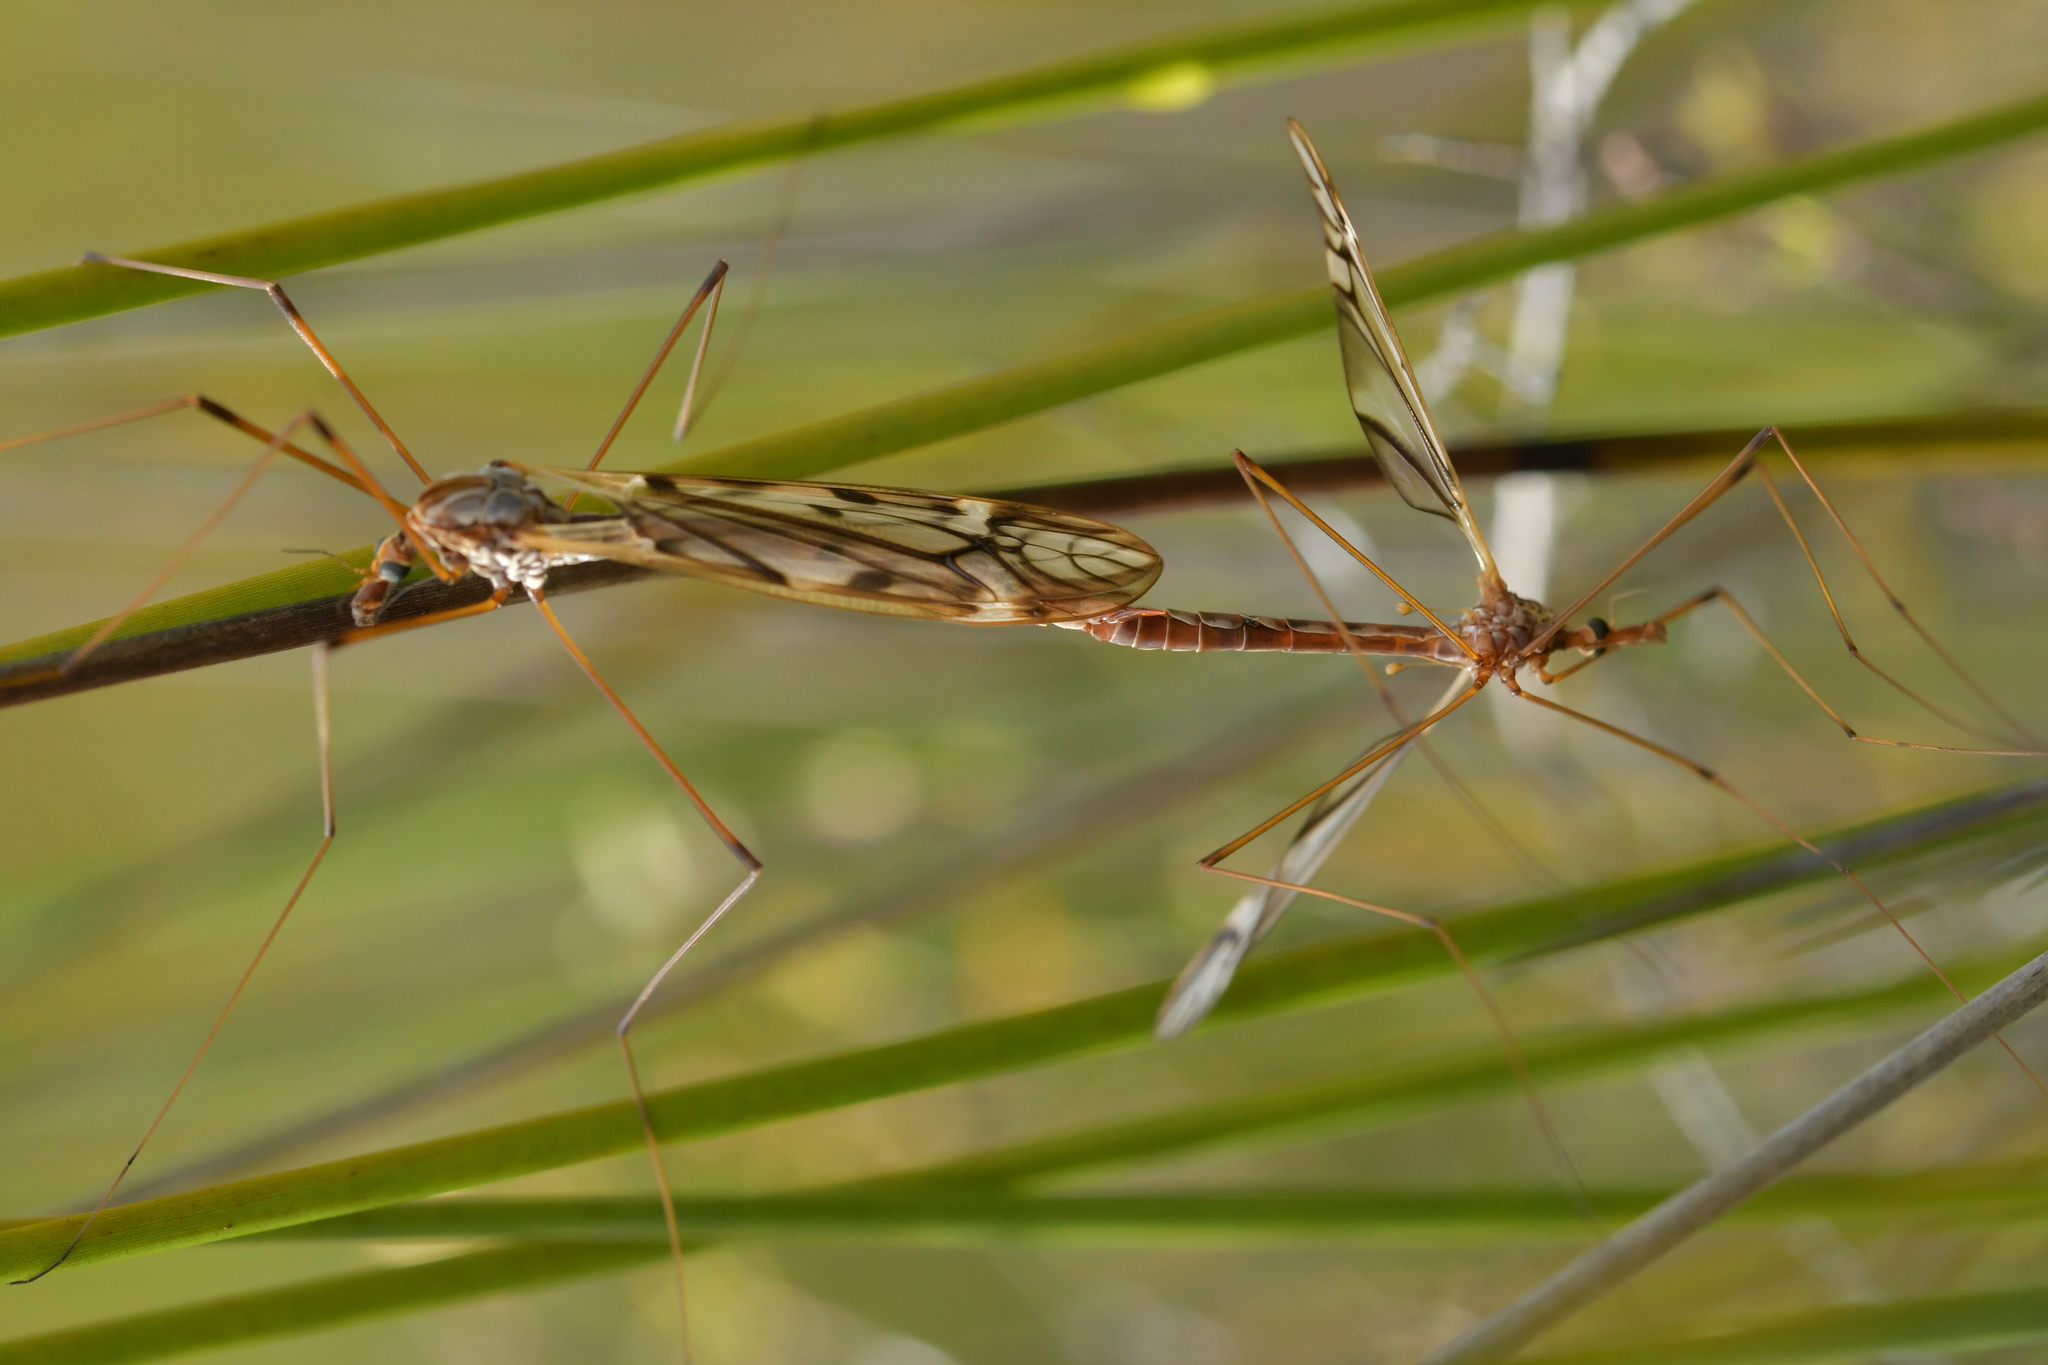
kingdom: Animalia
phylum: Arthropoda
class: Insecta
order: Diptera
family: Tipulidae
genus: Zelandotipula
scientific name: Zelandotipula novarae
